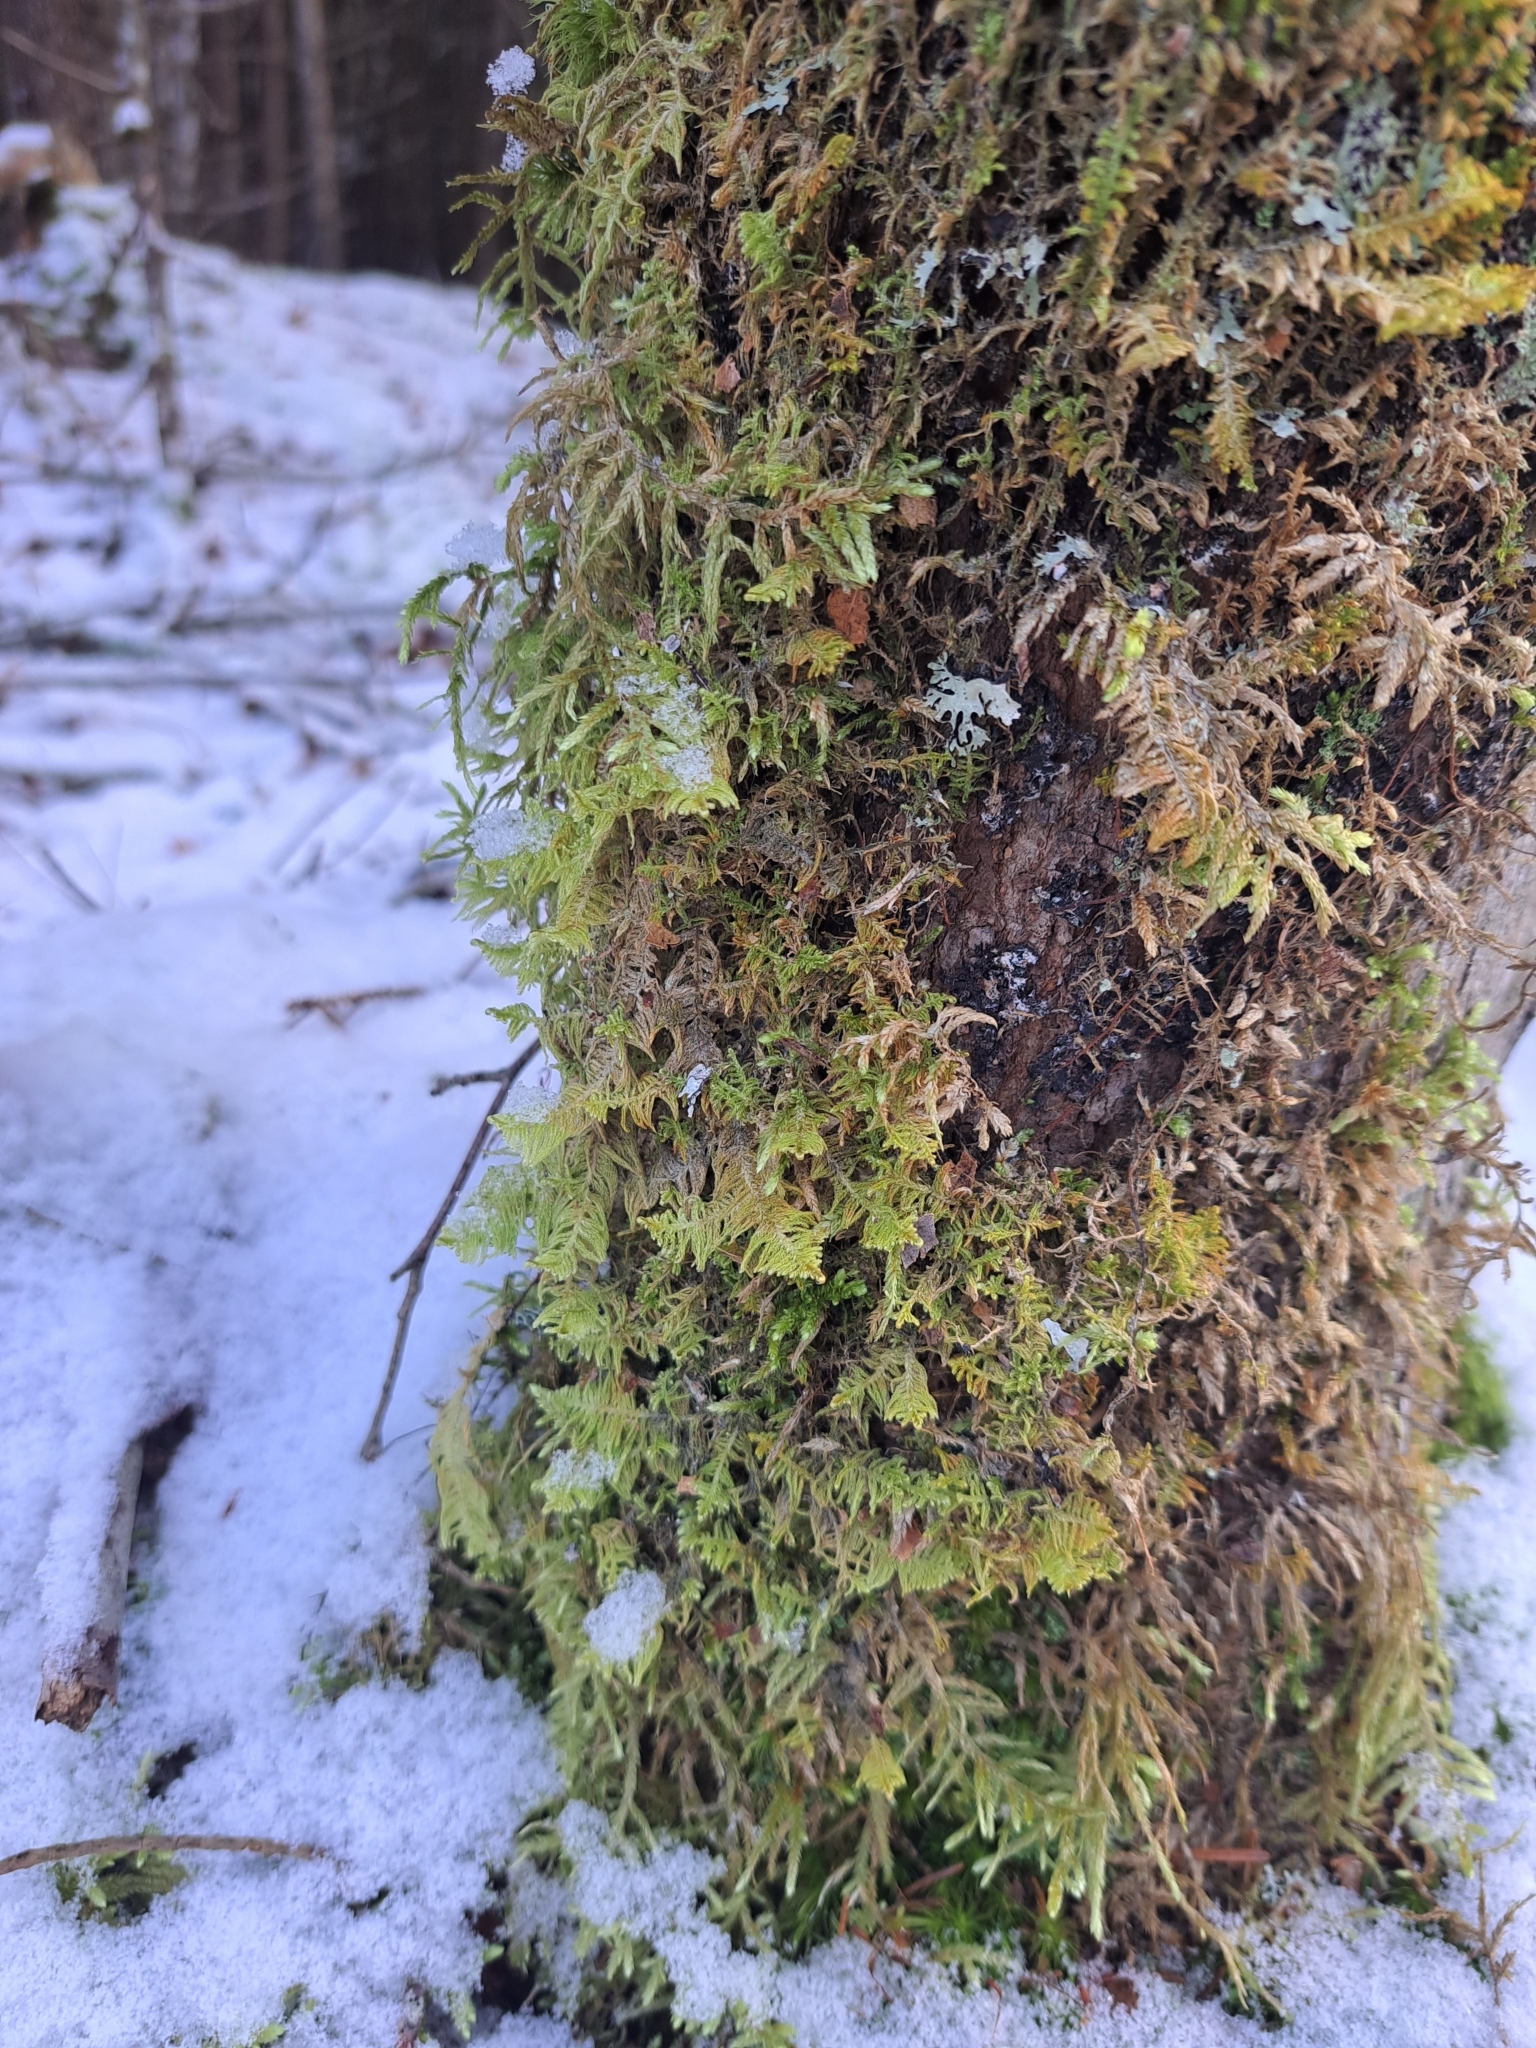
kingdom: Plantae
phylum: Bryophyta
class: Bryopsida
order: Hypnales
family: Callicladiaceae
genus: Callicladium
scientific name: Callicladium imponens
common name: Brocade moss
